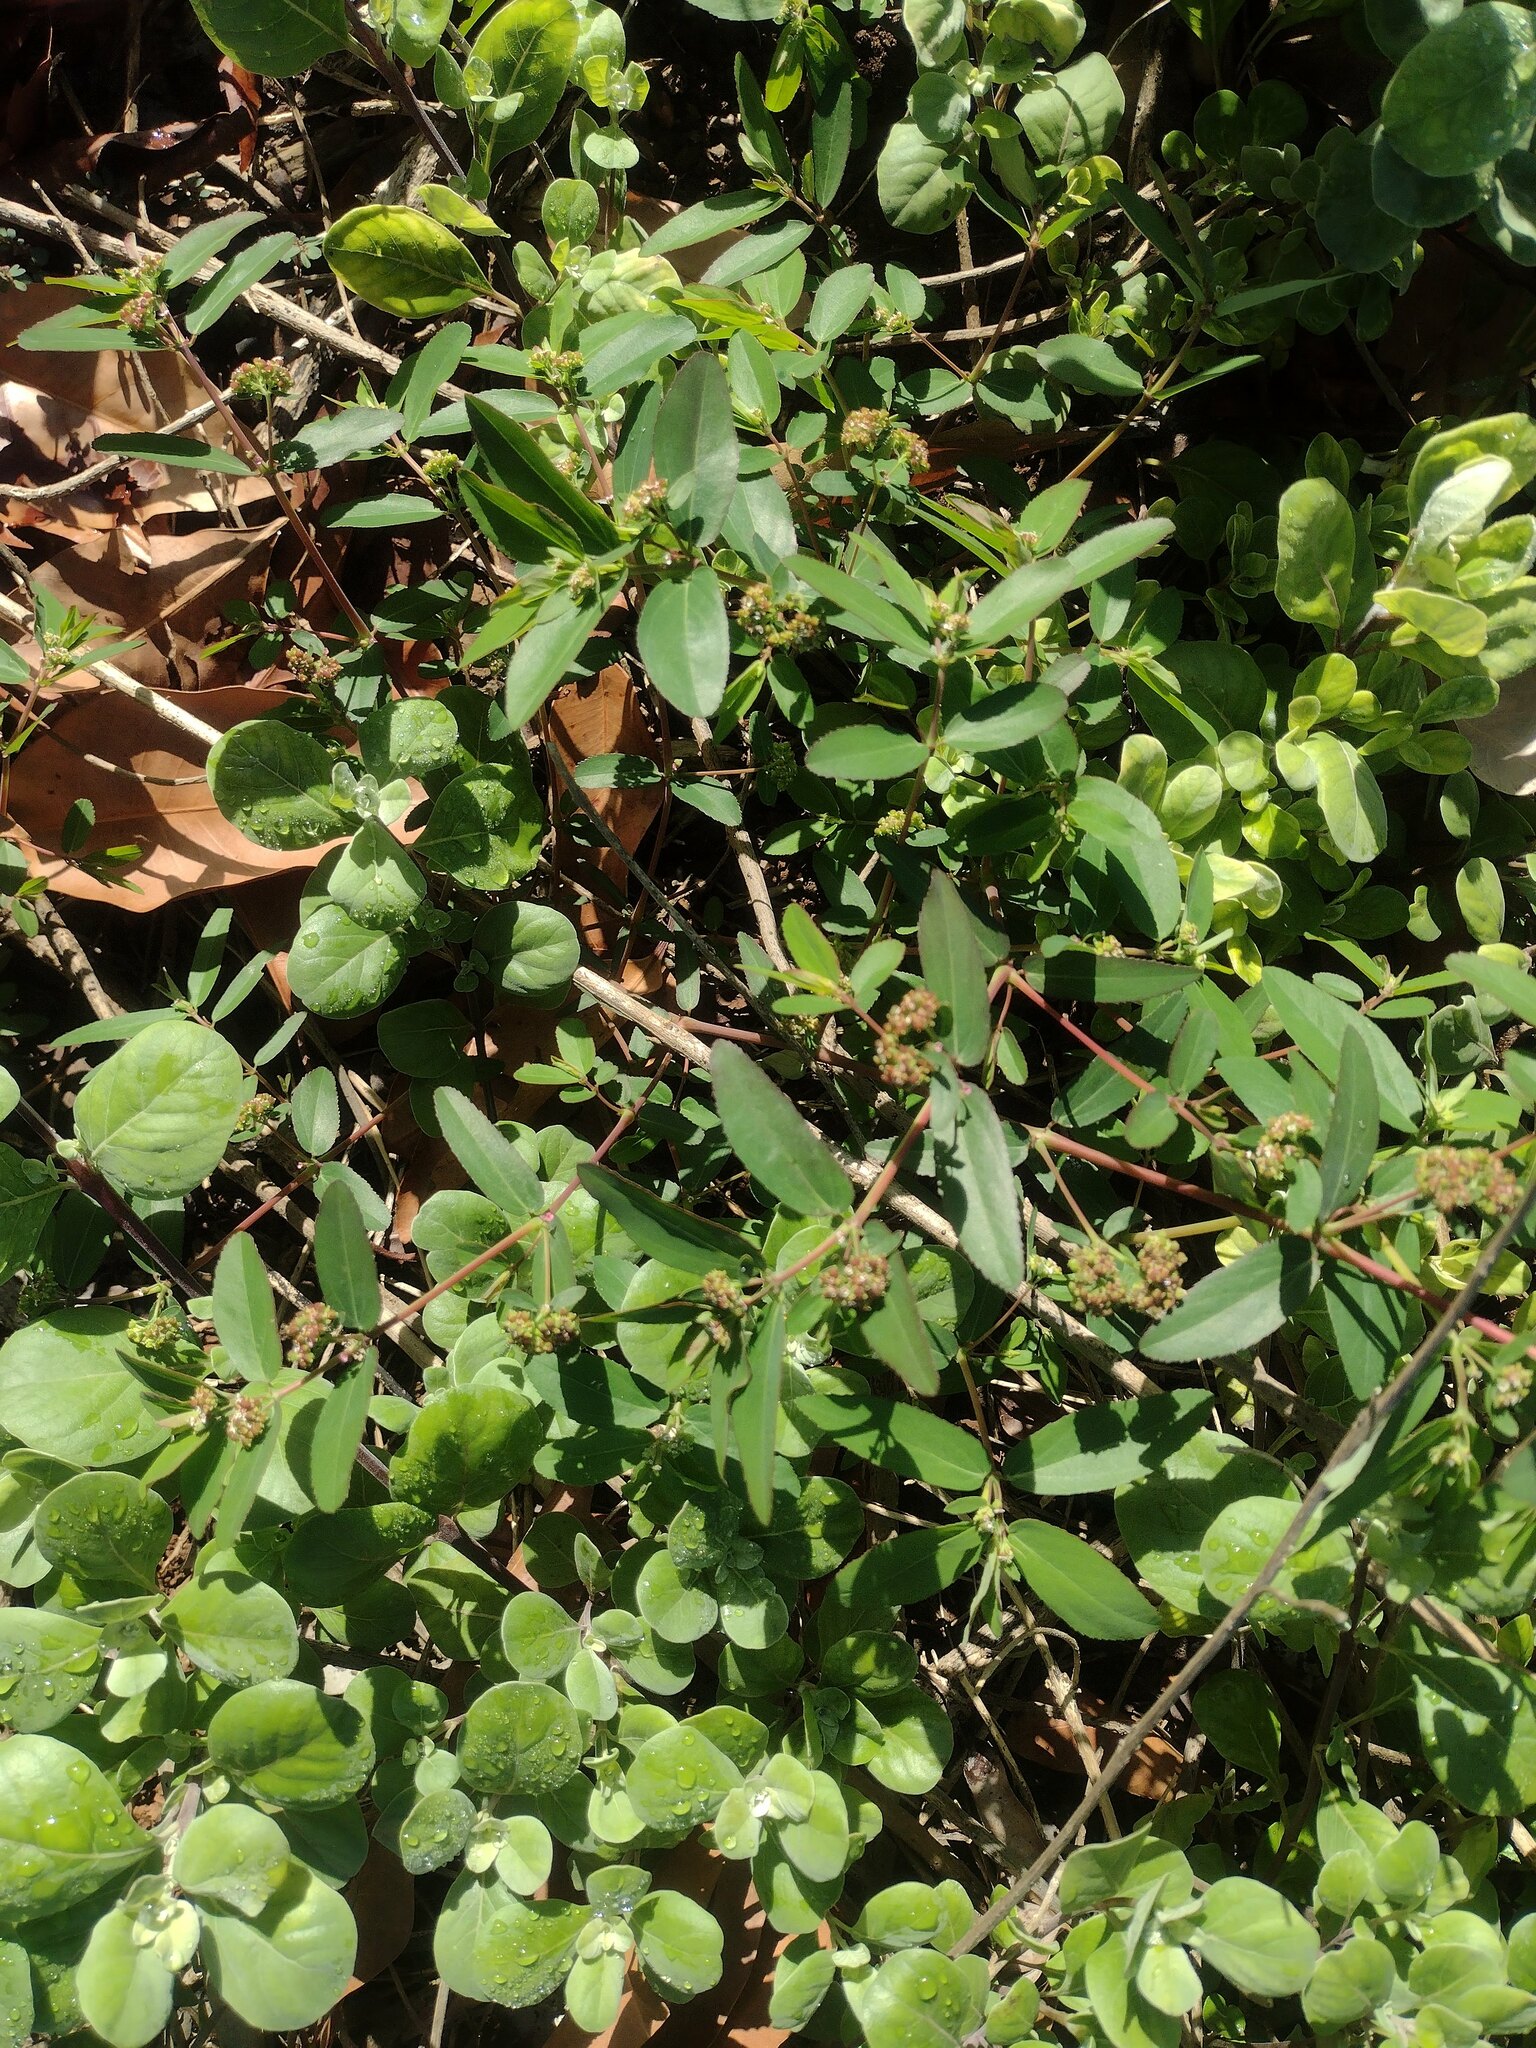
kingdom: Plantae
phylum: Tracheophyta
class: Magnoliopsida
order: Malpighiales
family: Euphorbiaceae
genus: Euphorbia
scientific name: Euphorbia hypericifolia
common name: Graceful sandmat
